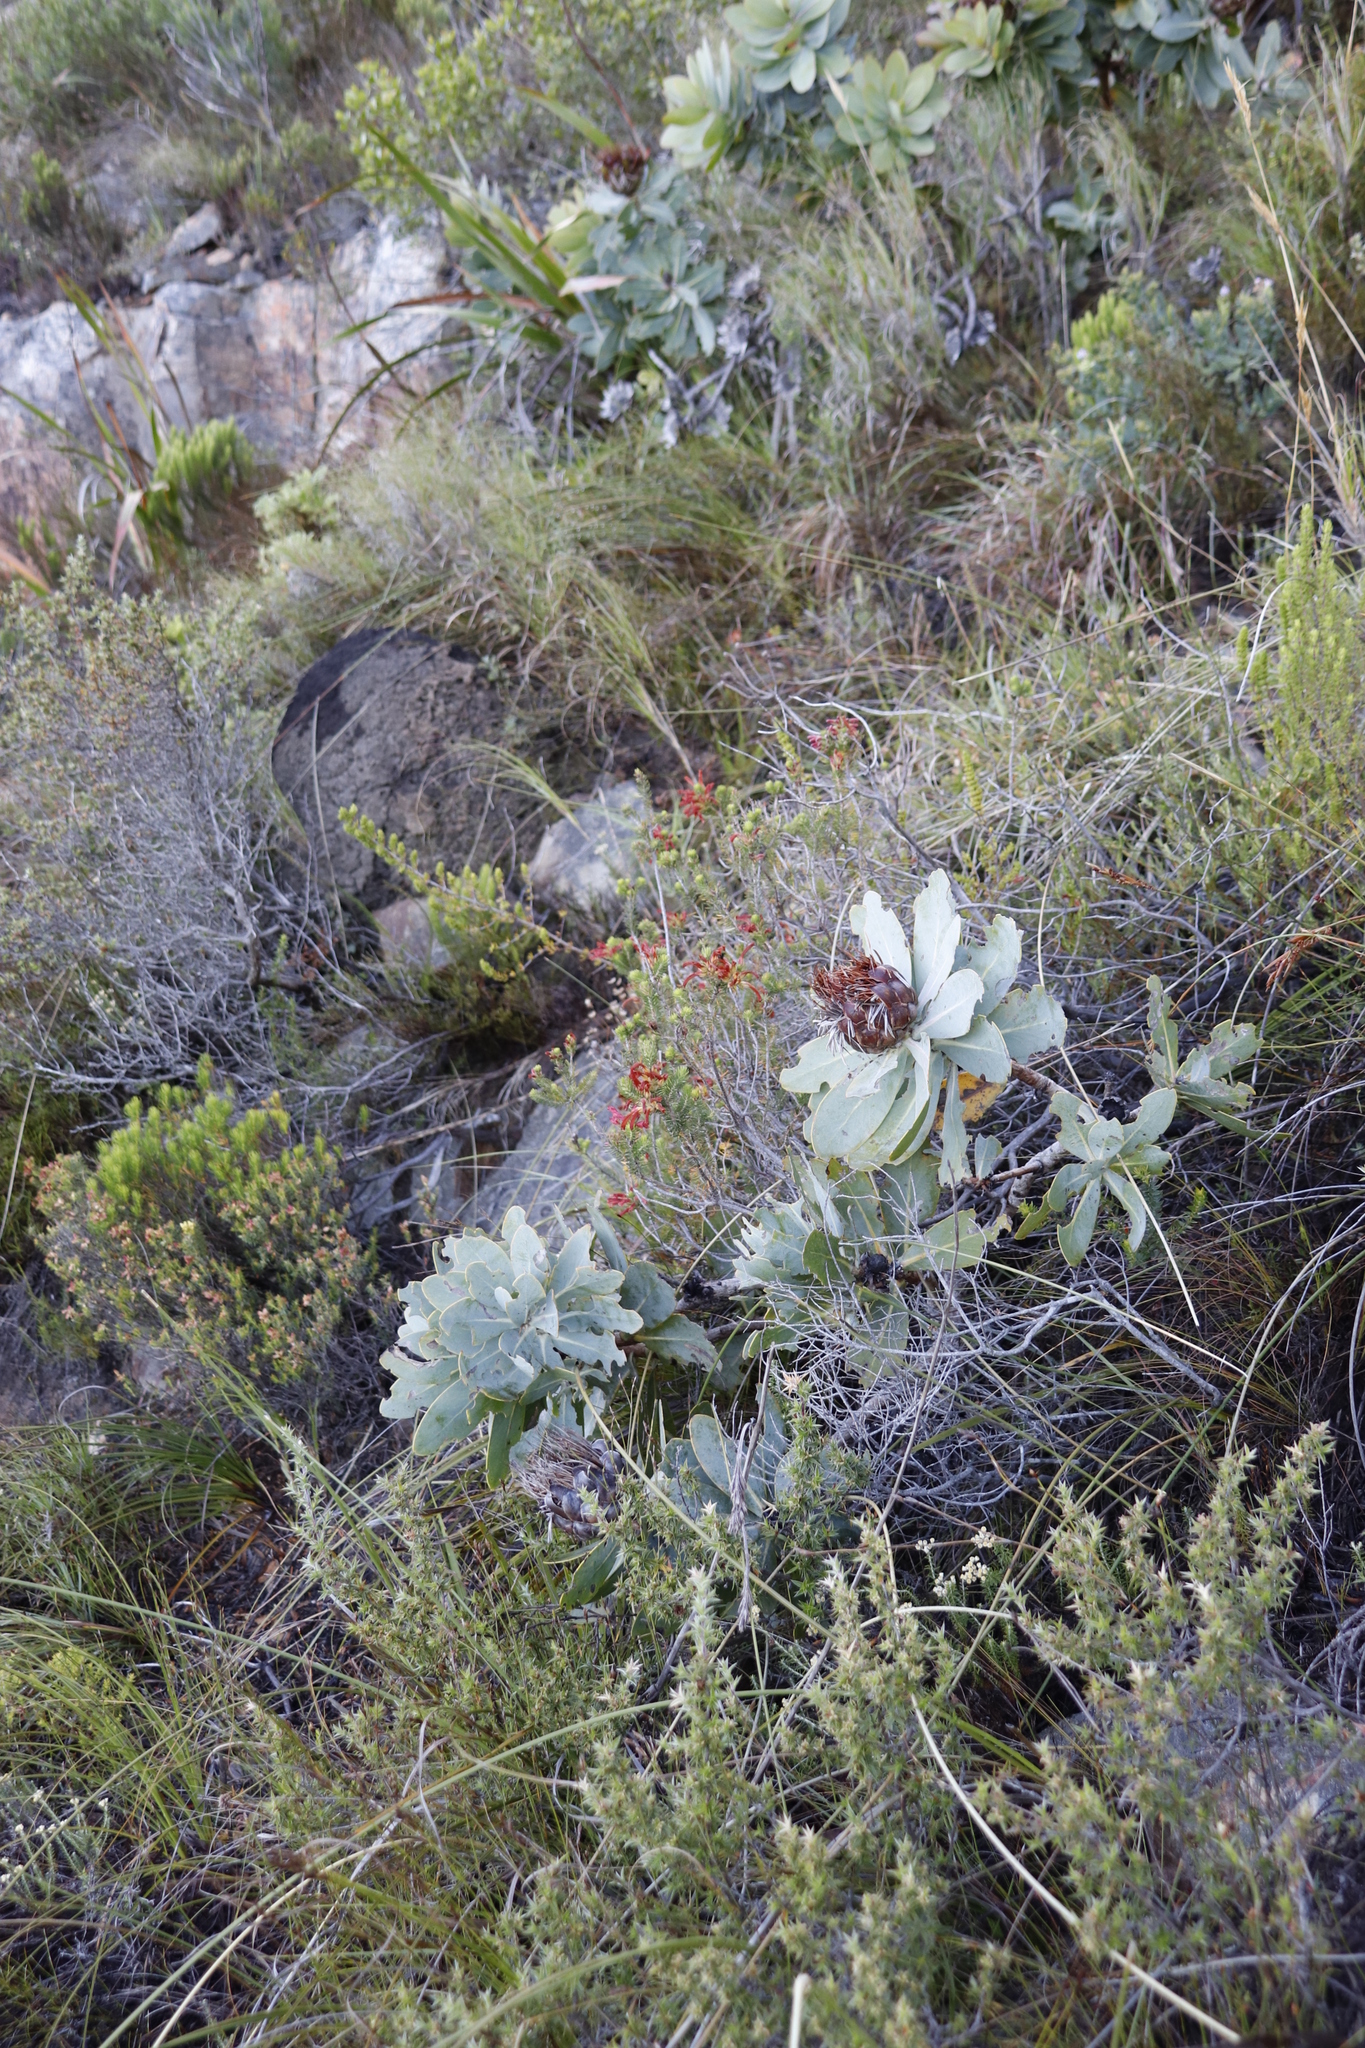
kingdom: Plantae
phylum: Tracheophyta
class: Magnoliopsida
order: Proteales
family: Proteaceae
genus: Protea
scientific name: Protea nitida
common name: Tree protea
